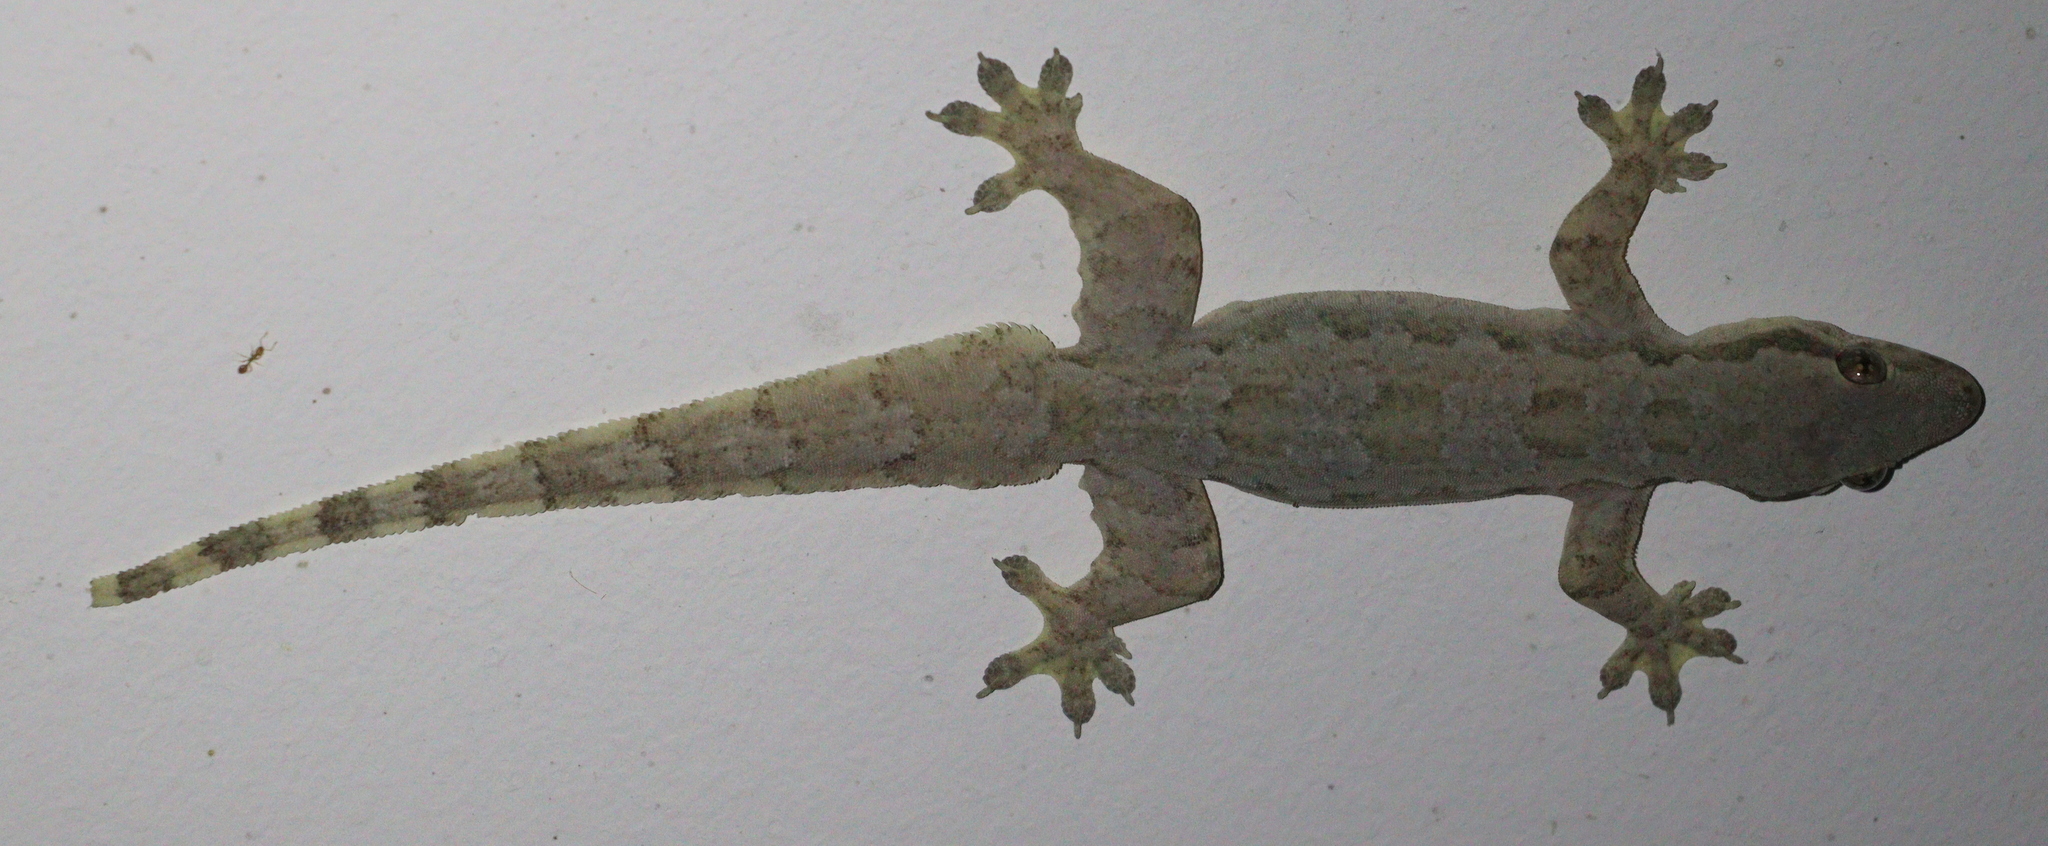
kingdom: Animalia
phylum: Chordata
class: Squamata
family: Gekkonidae
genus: Hemidactylus
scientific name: Hemidactylus platyurus
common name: Flat-tailed house gecko
